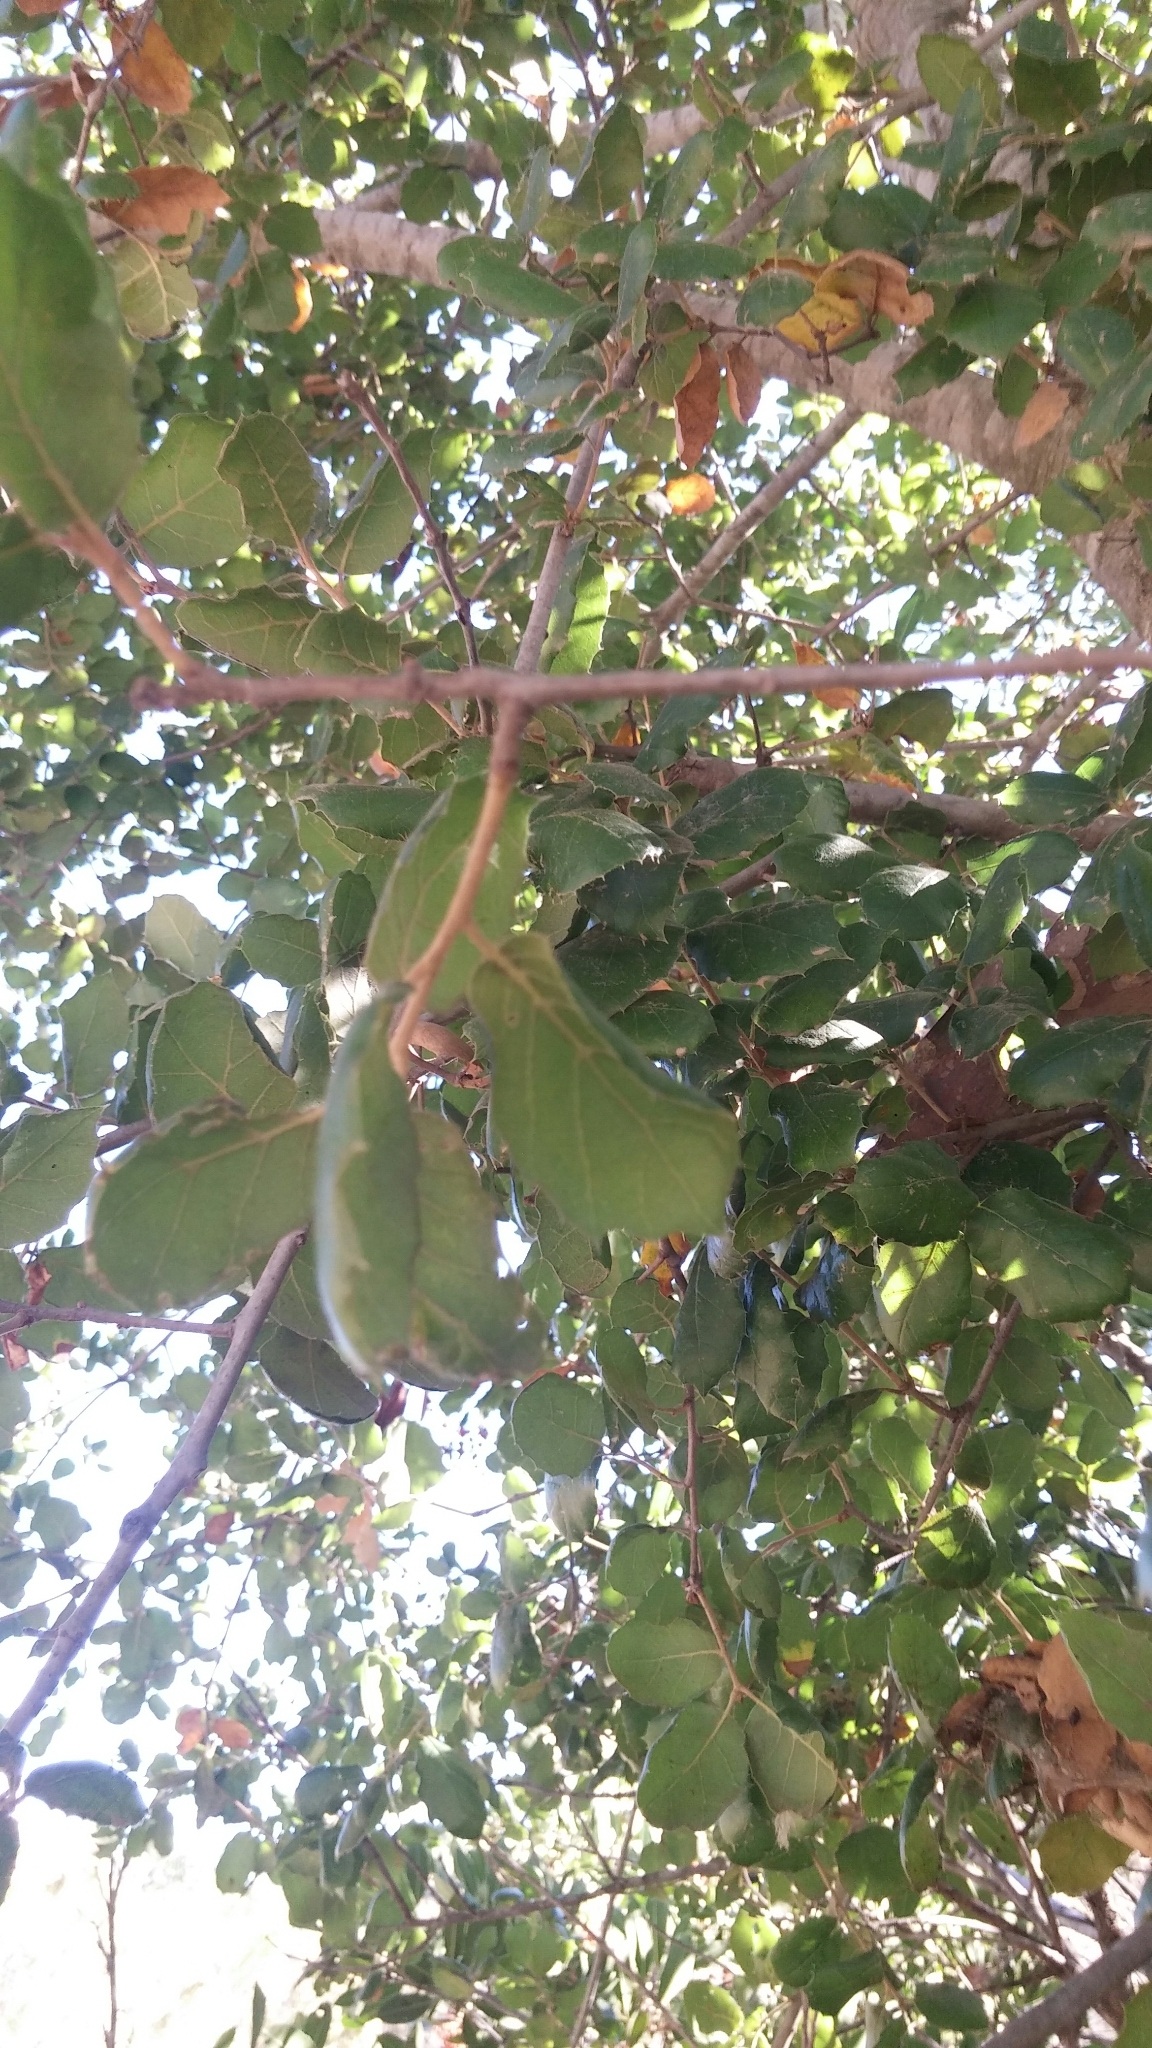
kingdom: Plantae
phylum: Tracheophyta
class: Magnoliopsida
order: Fagales
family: Fagaceae
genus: Quercus
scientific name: Quercus agrifolia
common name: California live oak
